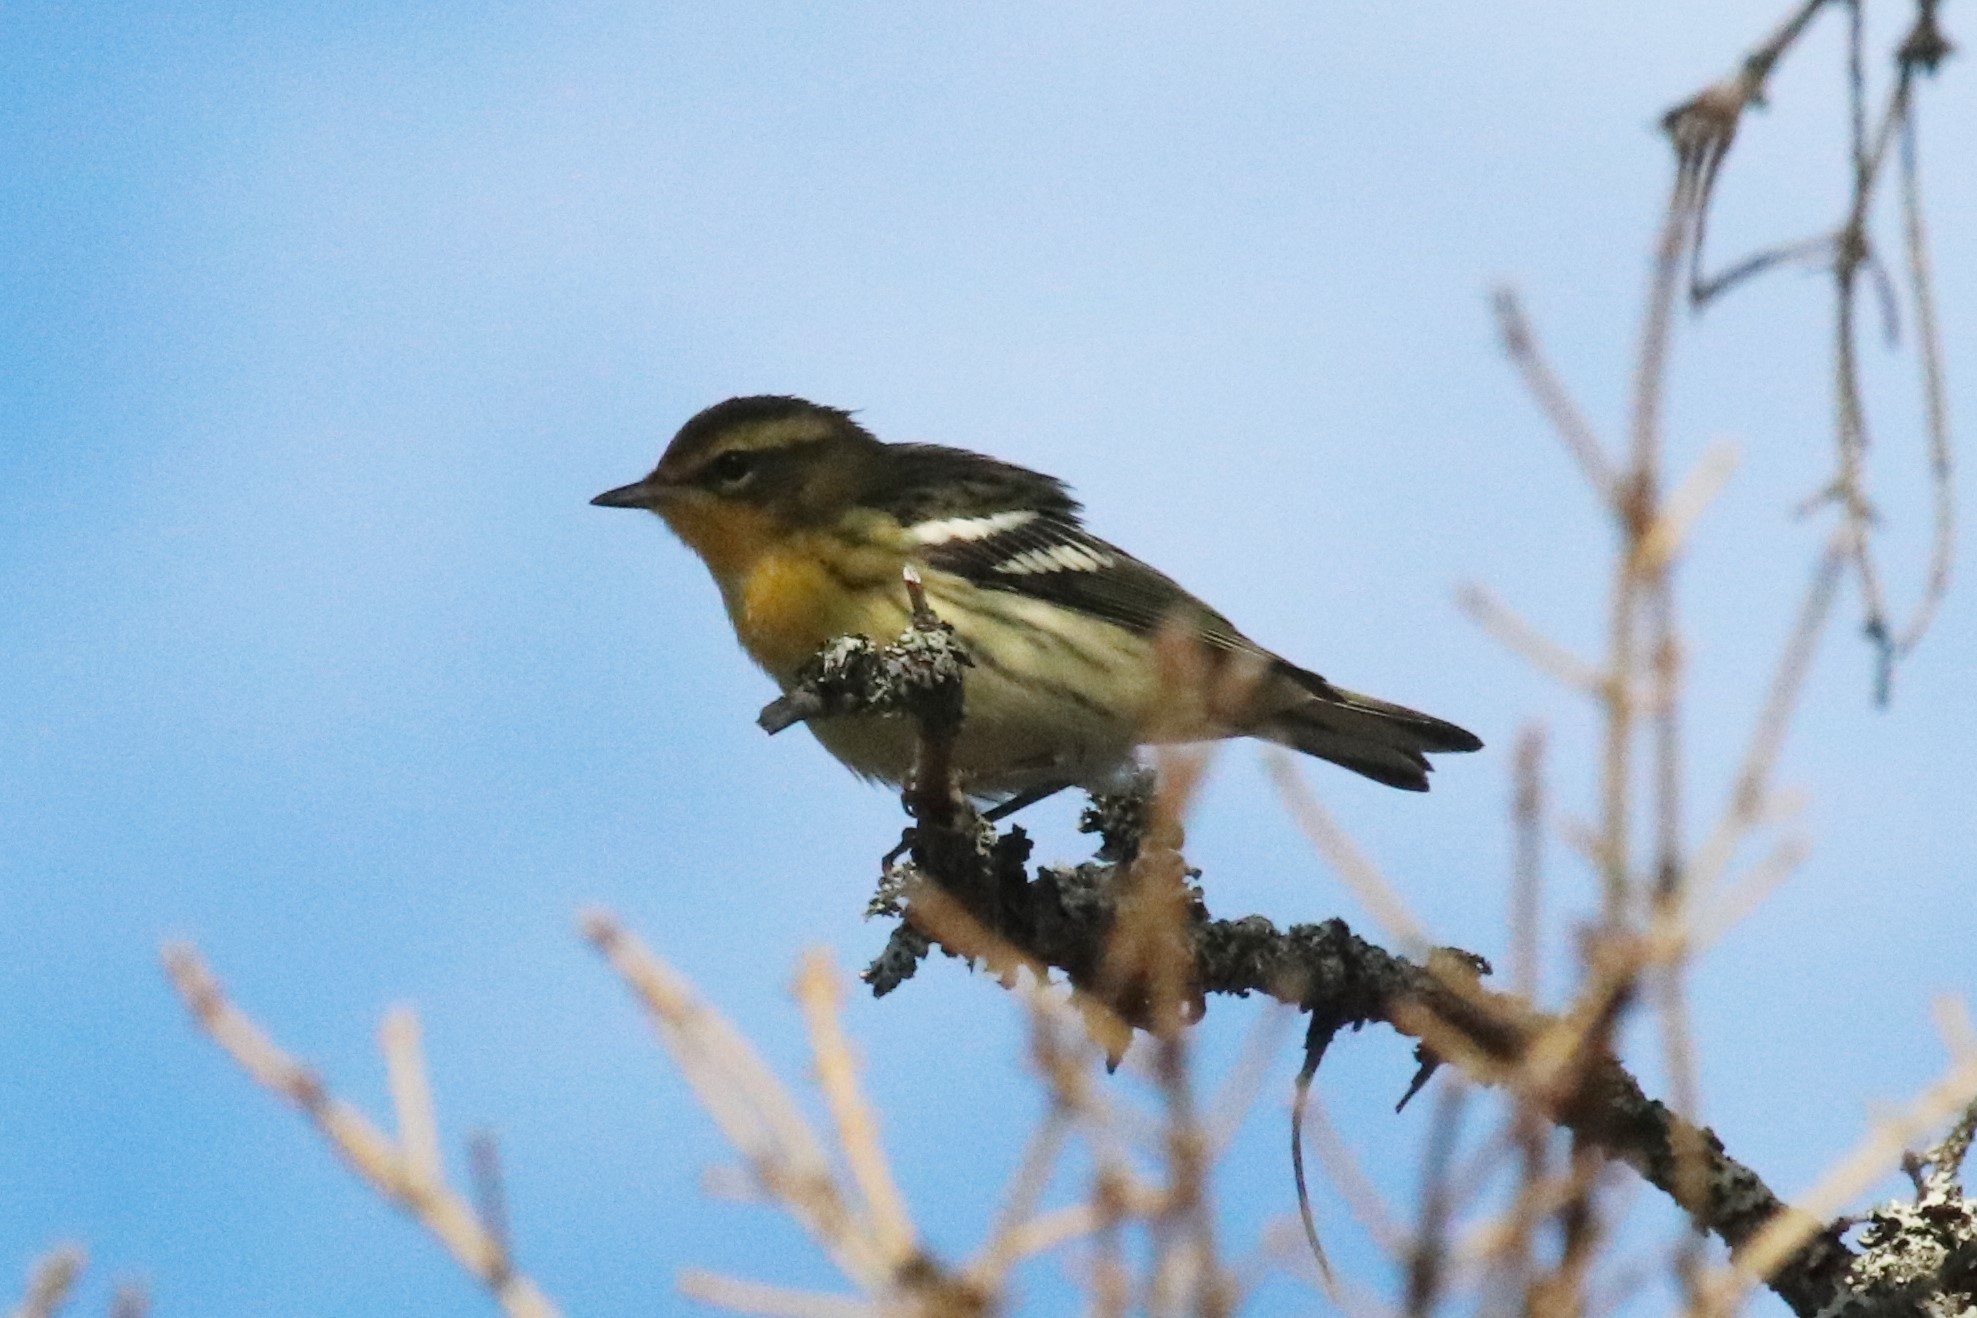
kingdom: Animalia
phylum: Chordata
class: Aves
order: Passeriformes
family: Parulidae
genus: Setophaga
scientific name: Setophaga fusca
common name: Blackburnian warbler
